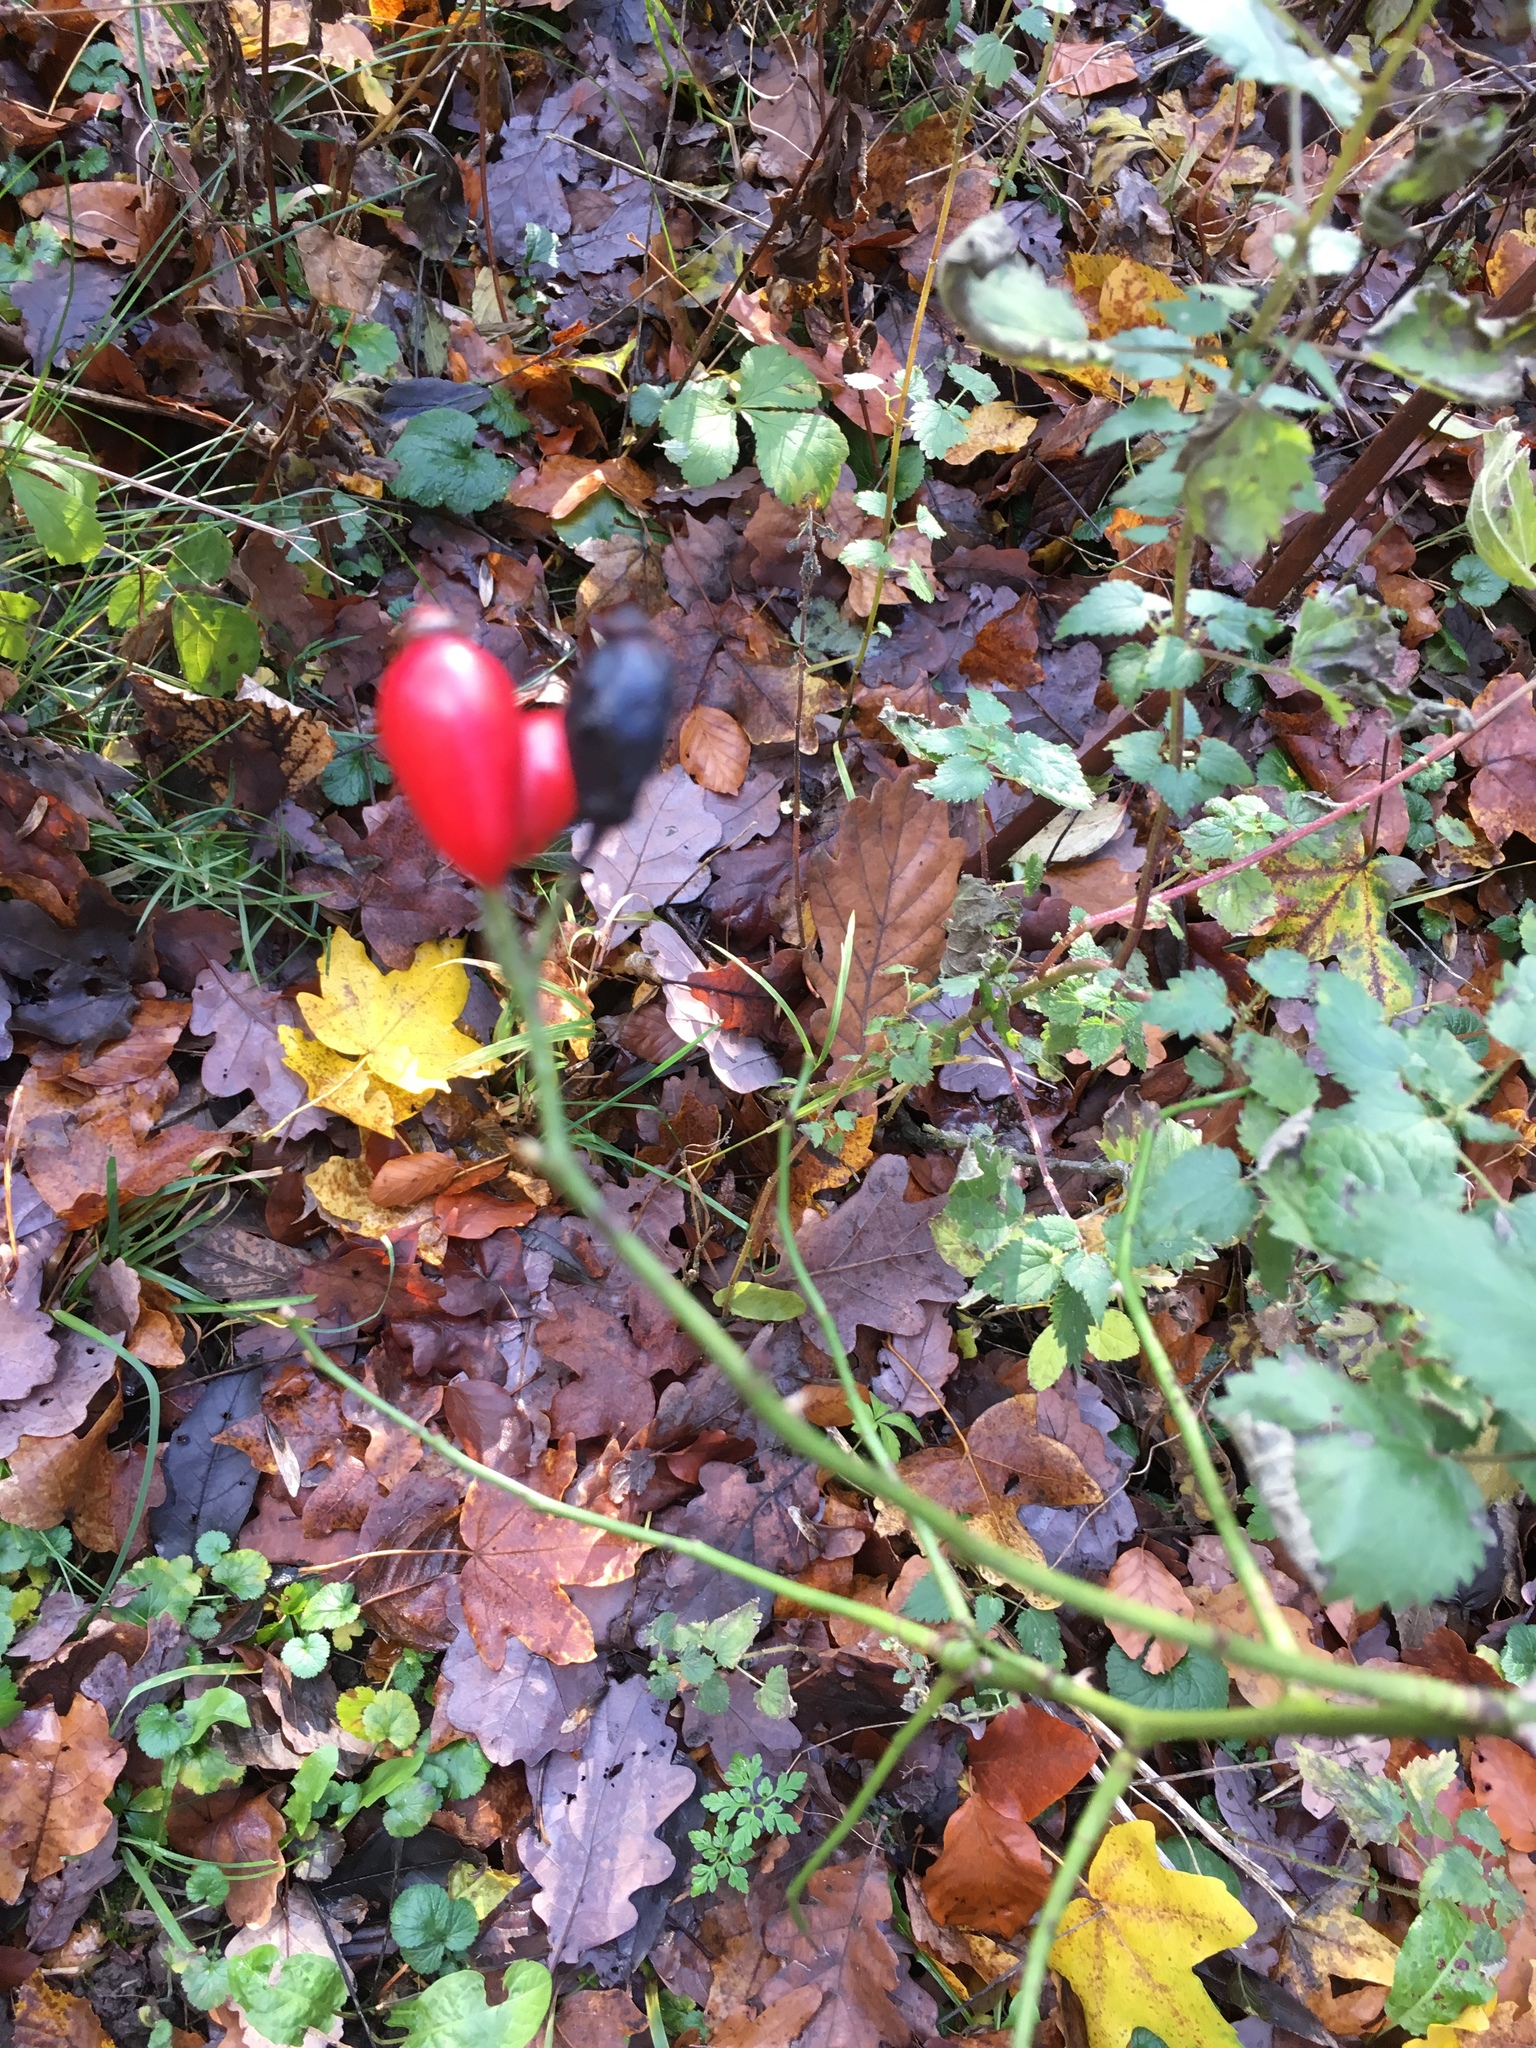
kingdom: Plantae
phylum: Tracheophyta
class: Magnoliopsida
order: Rosales
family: Rosaceae
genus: Rosa
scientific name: Rosa canina
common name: Dog rose
